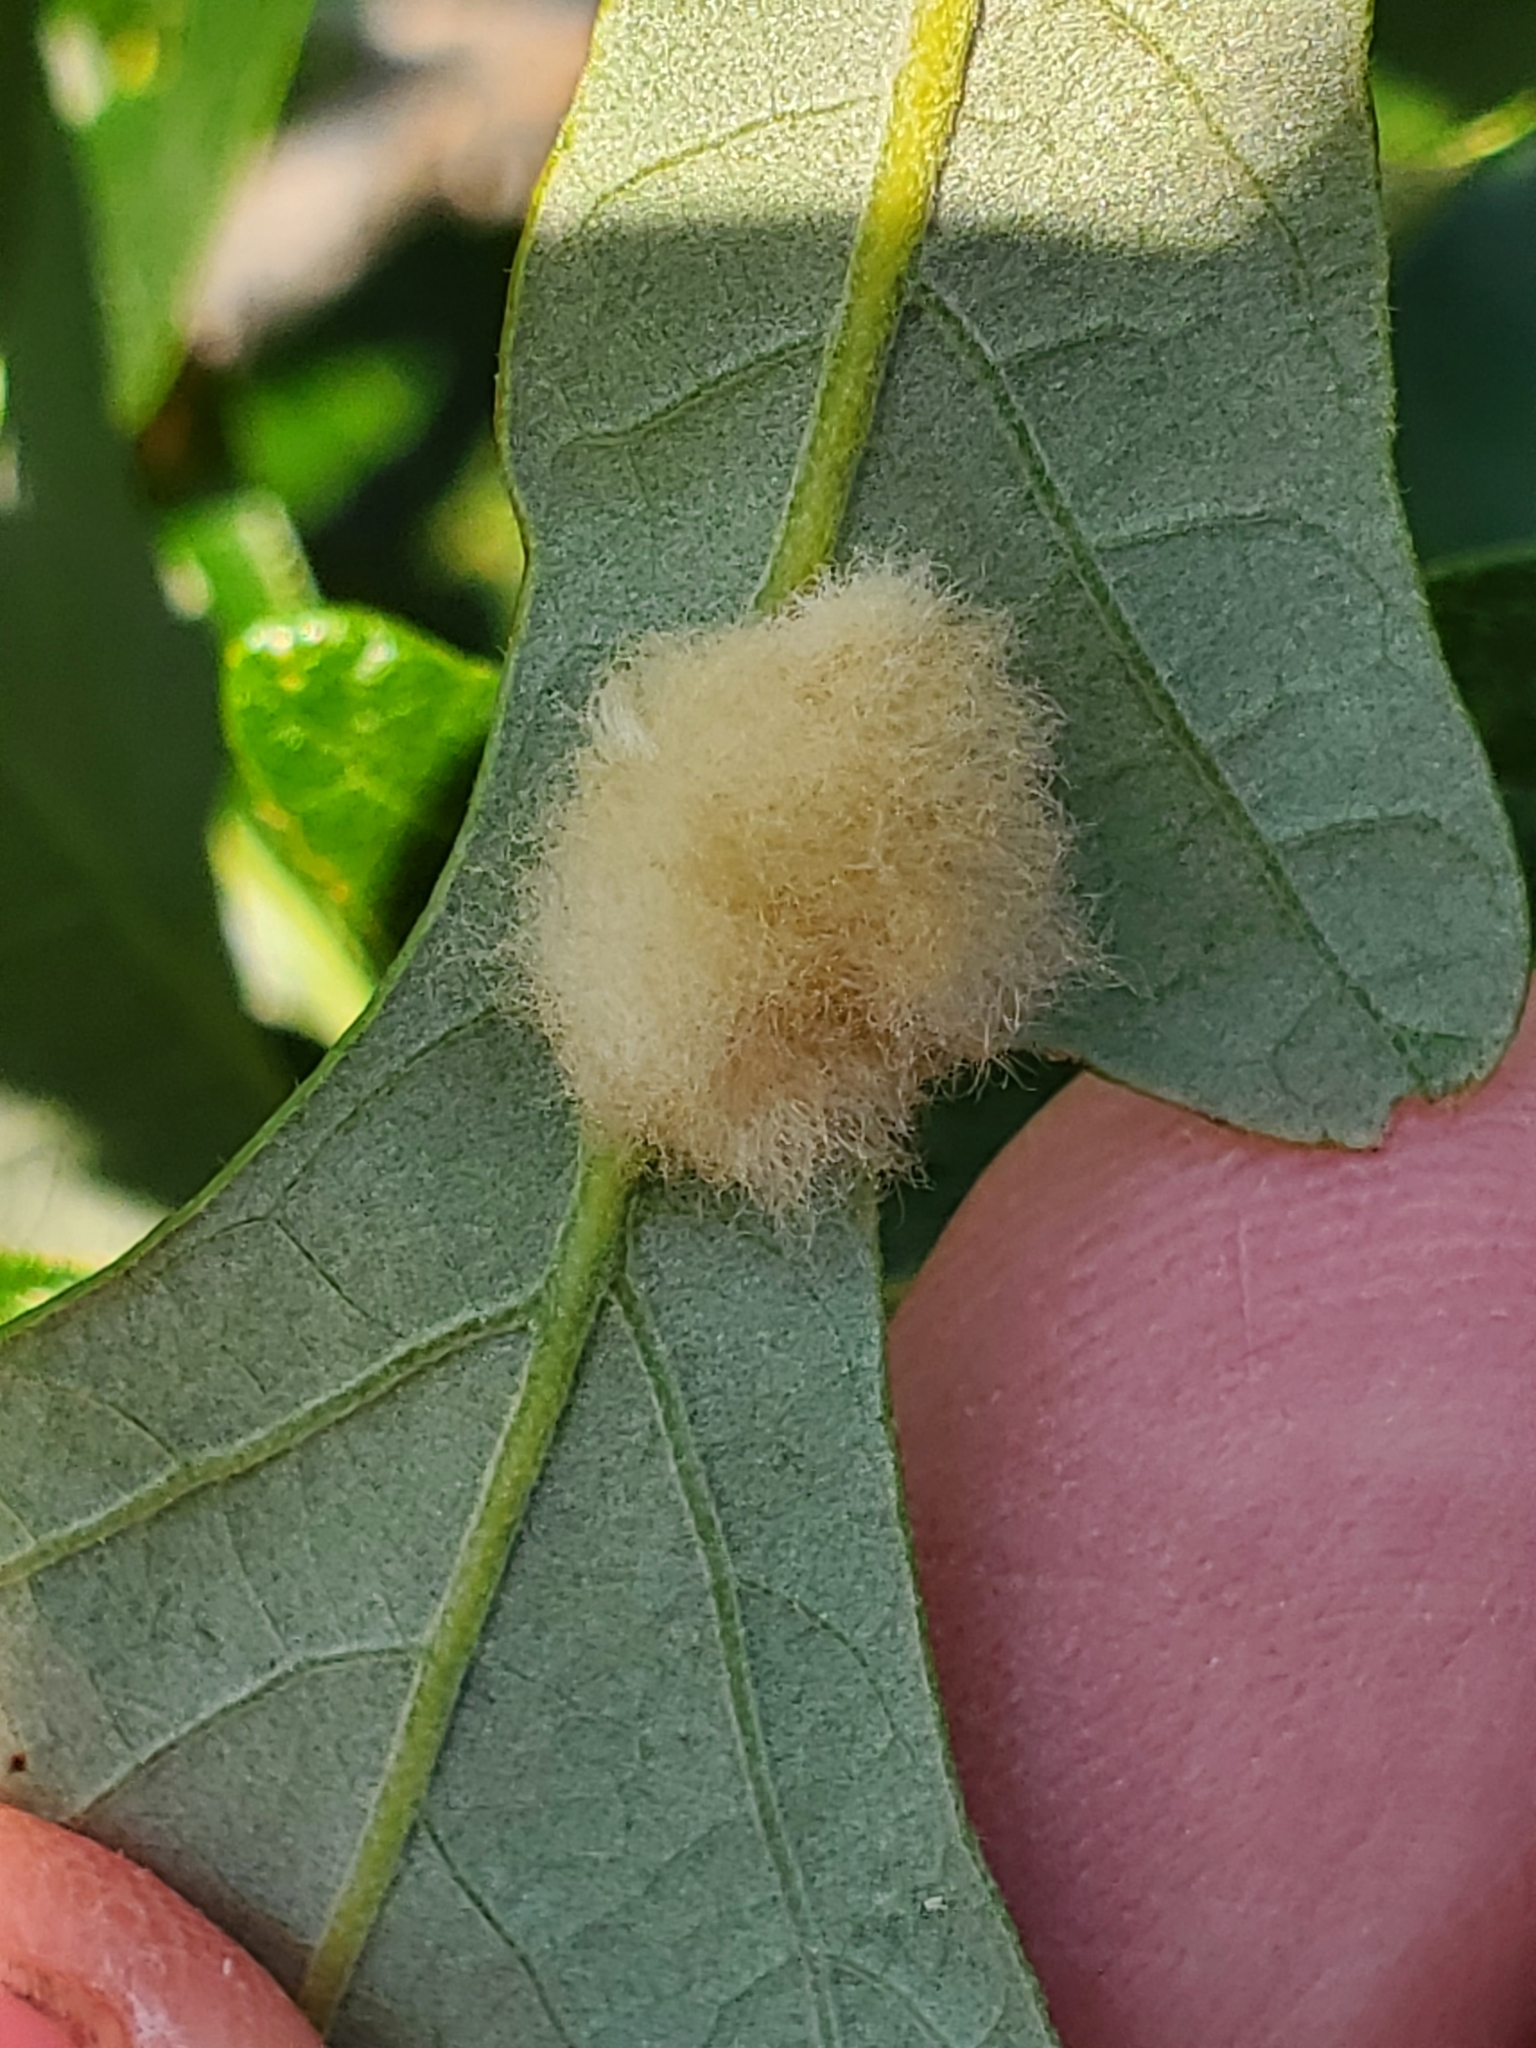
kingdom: Animalia
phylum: Arthropoda
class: Insecta
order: Hymenoptera
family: Cynipidae
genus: Andricus
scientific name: Andricus Druon ignotum
